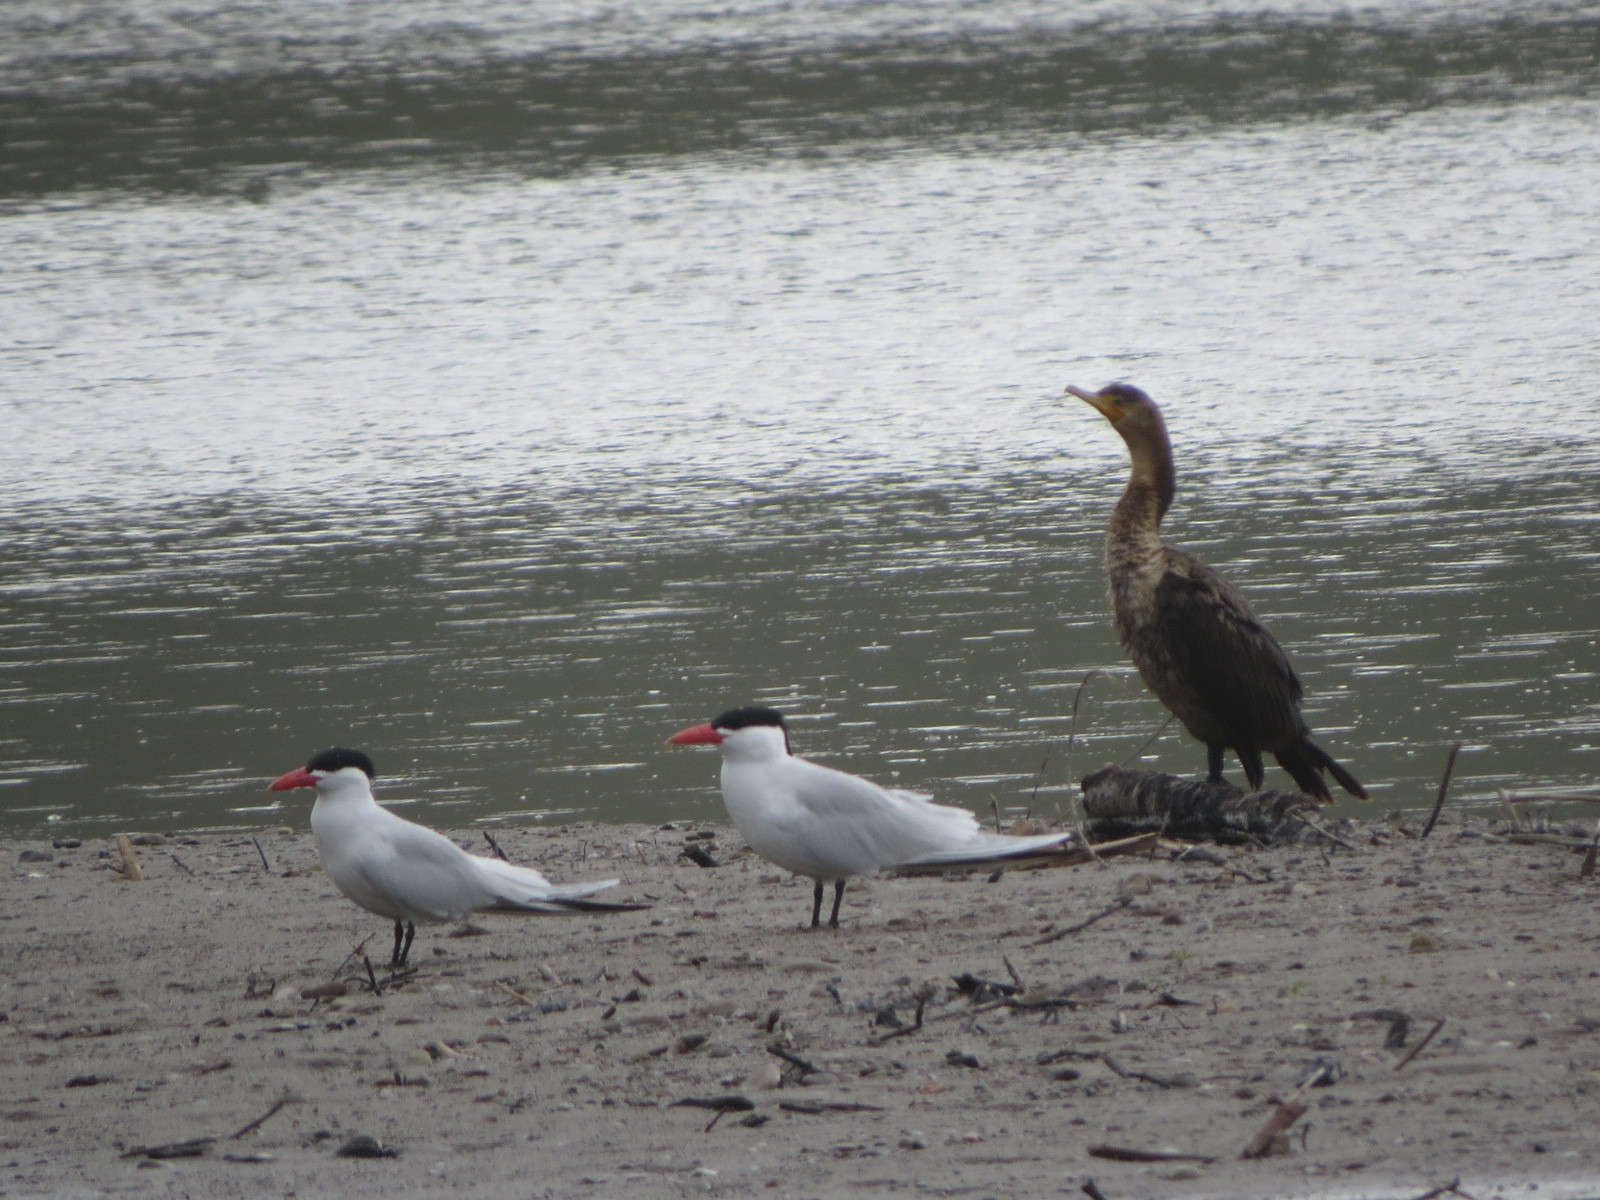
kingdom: Animalia
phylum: Chordata
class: Aves
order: Charadriiformes
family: Laridae
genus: Hydroprogne
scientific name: Hydroprogne caspia
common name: Caspian tern
